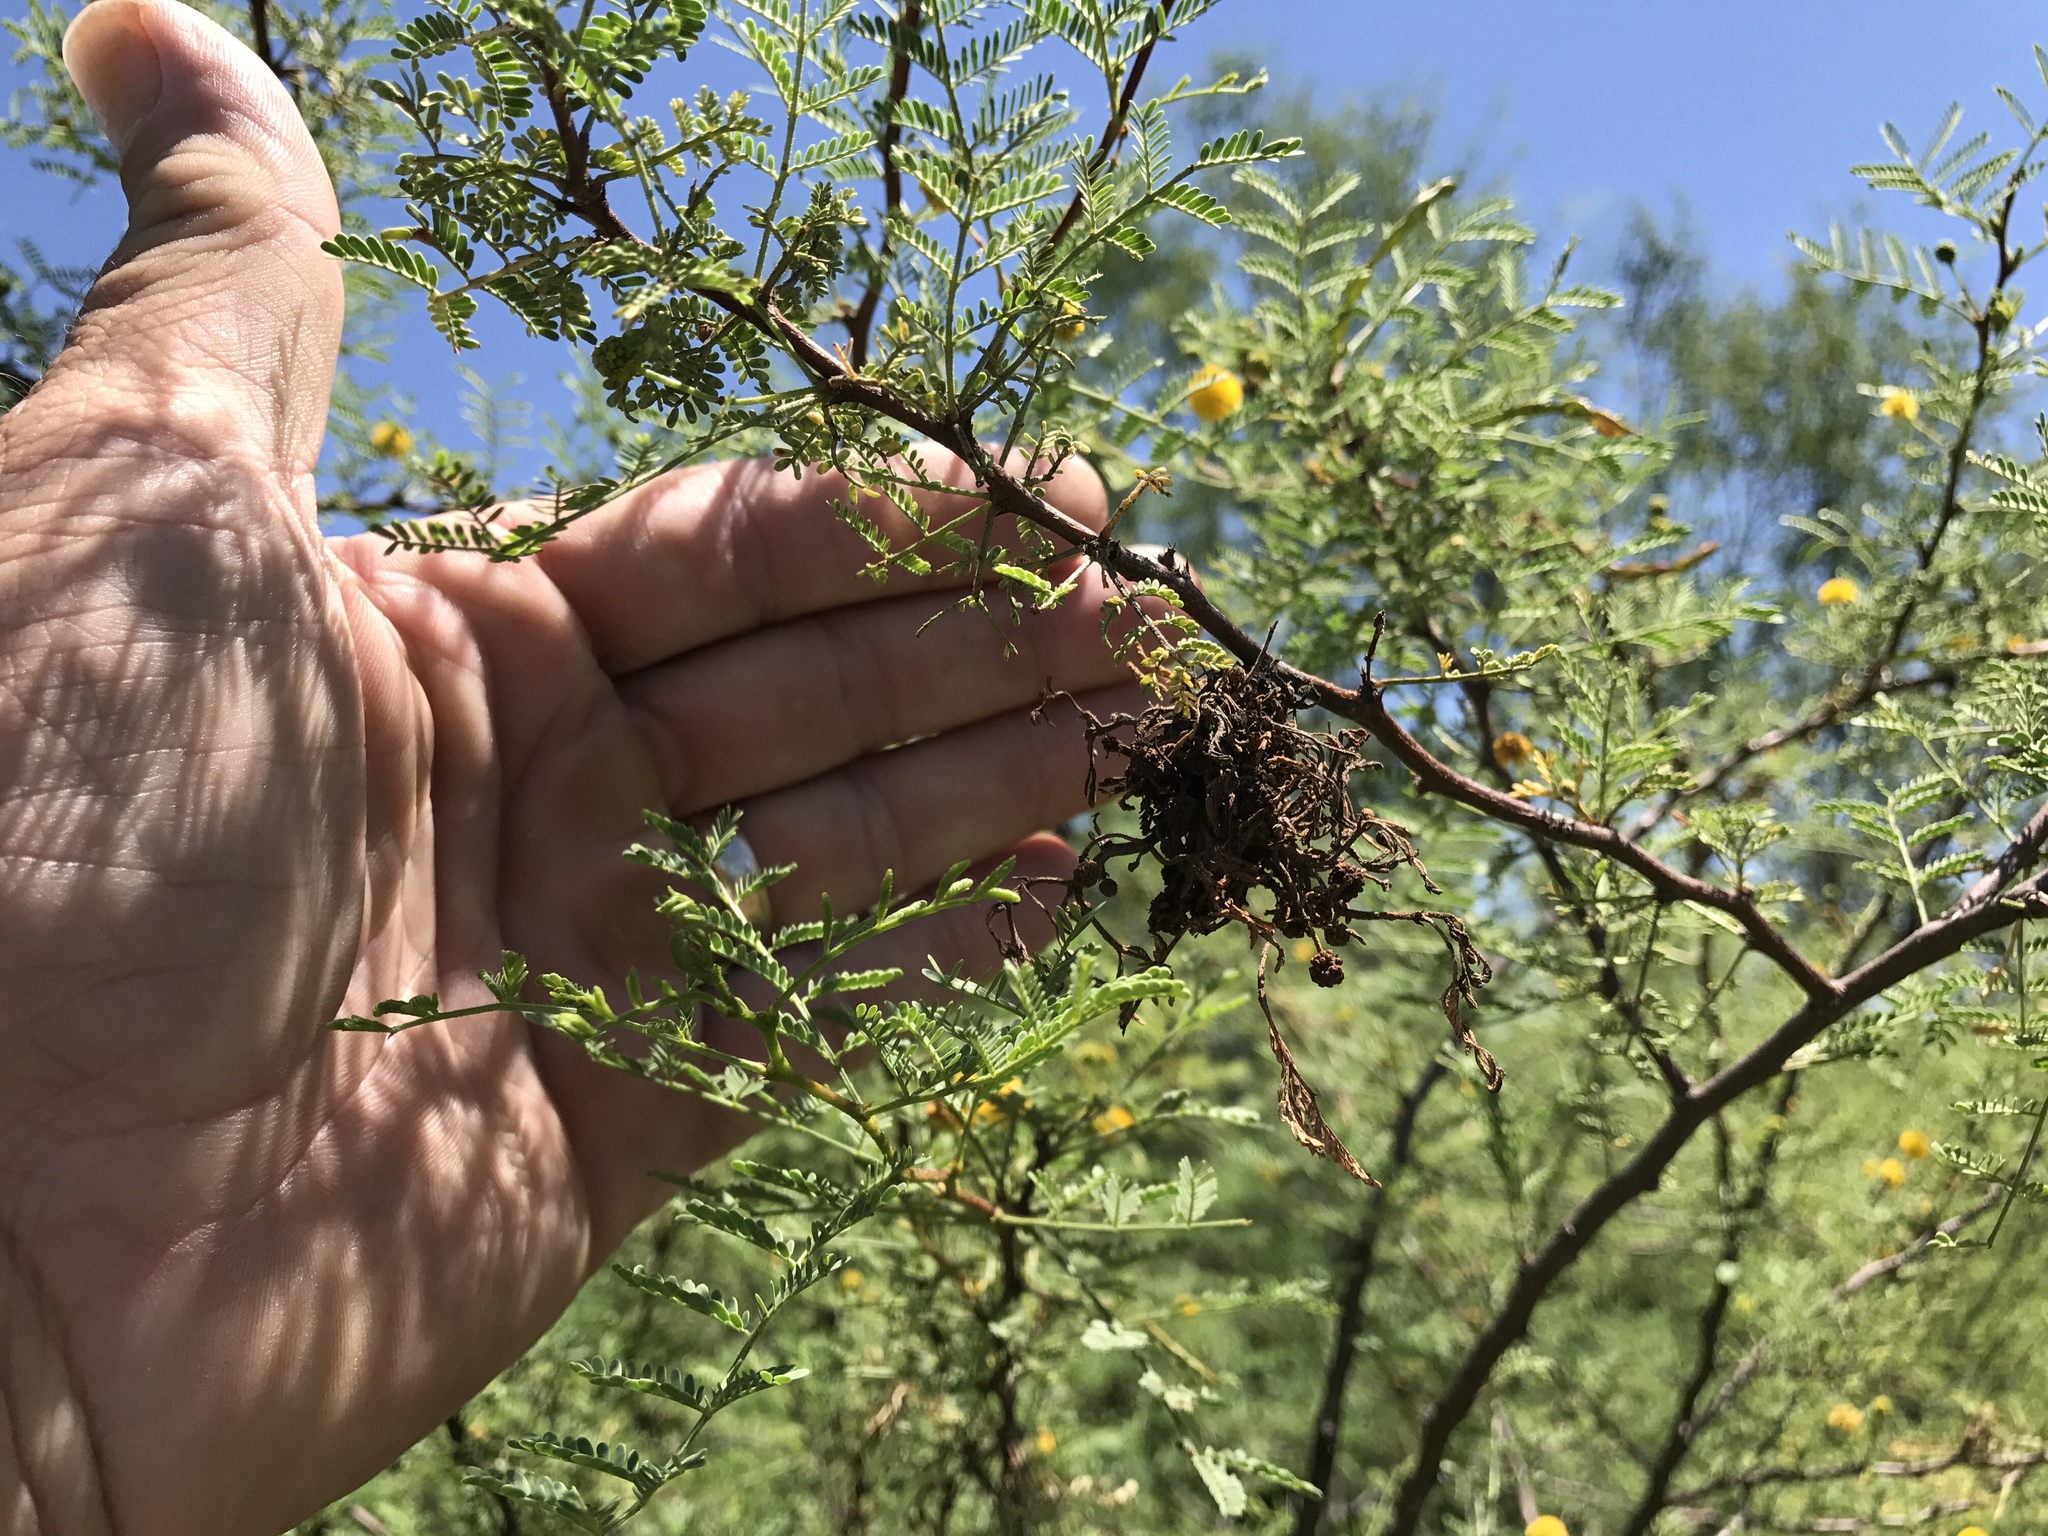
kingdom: Plantae
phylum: Tracheophyta
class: Magnoliopsida
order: Fabales
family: Fabaceae
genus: Vachellia
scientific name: Vachellia constricta
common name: Mescat acacia
